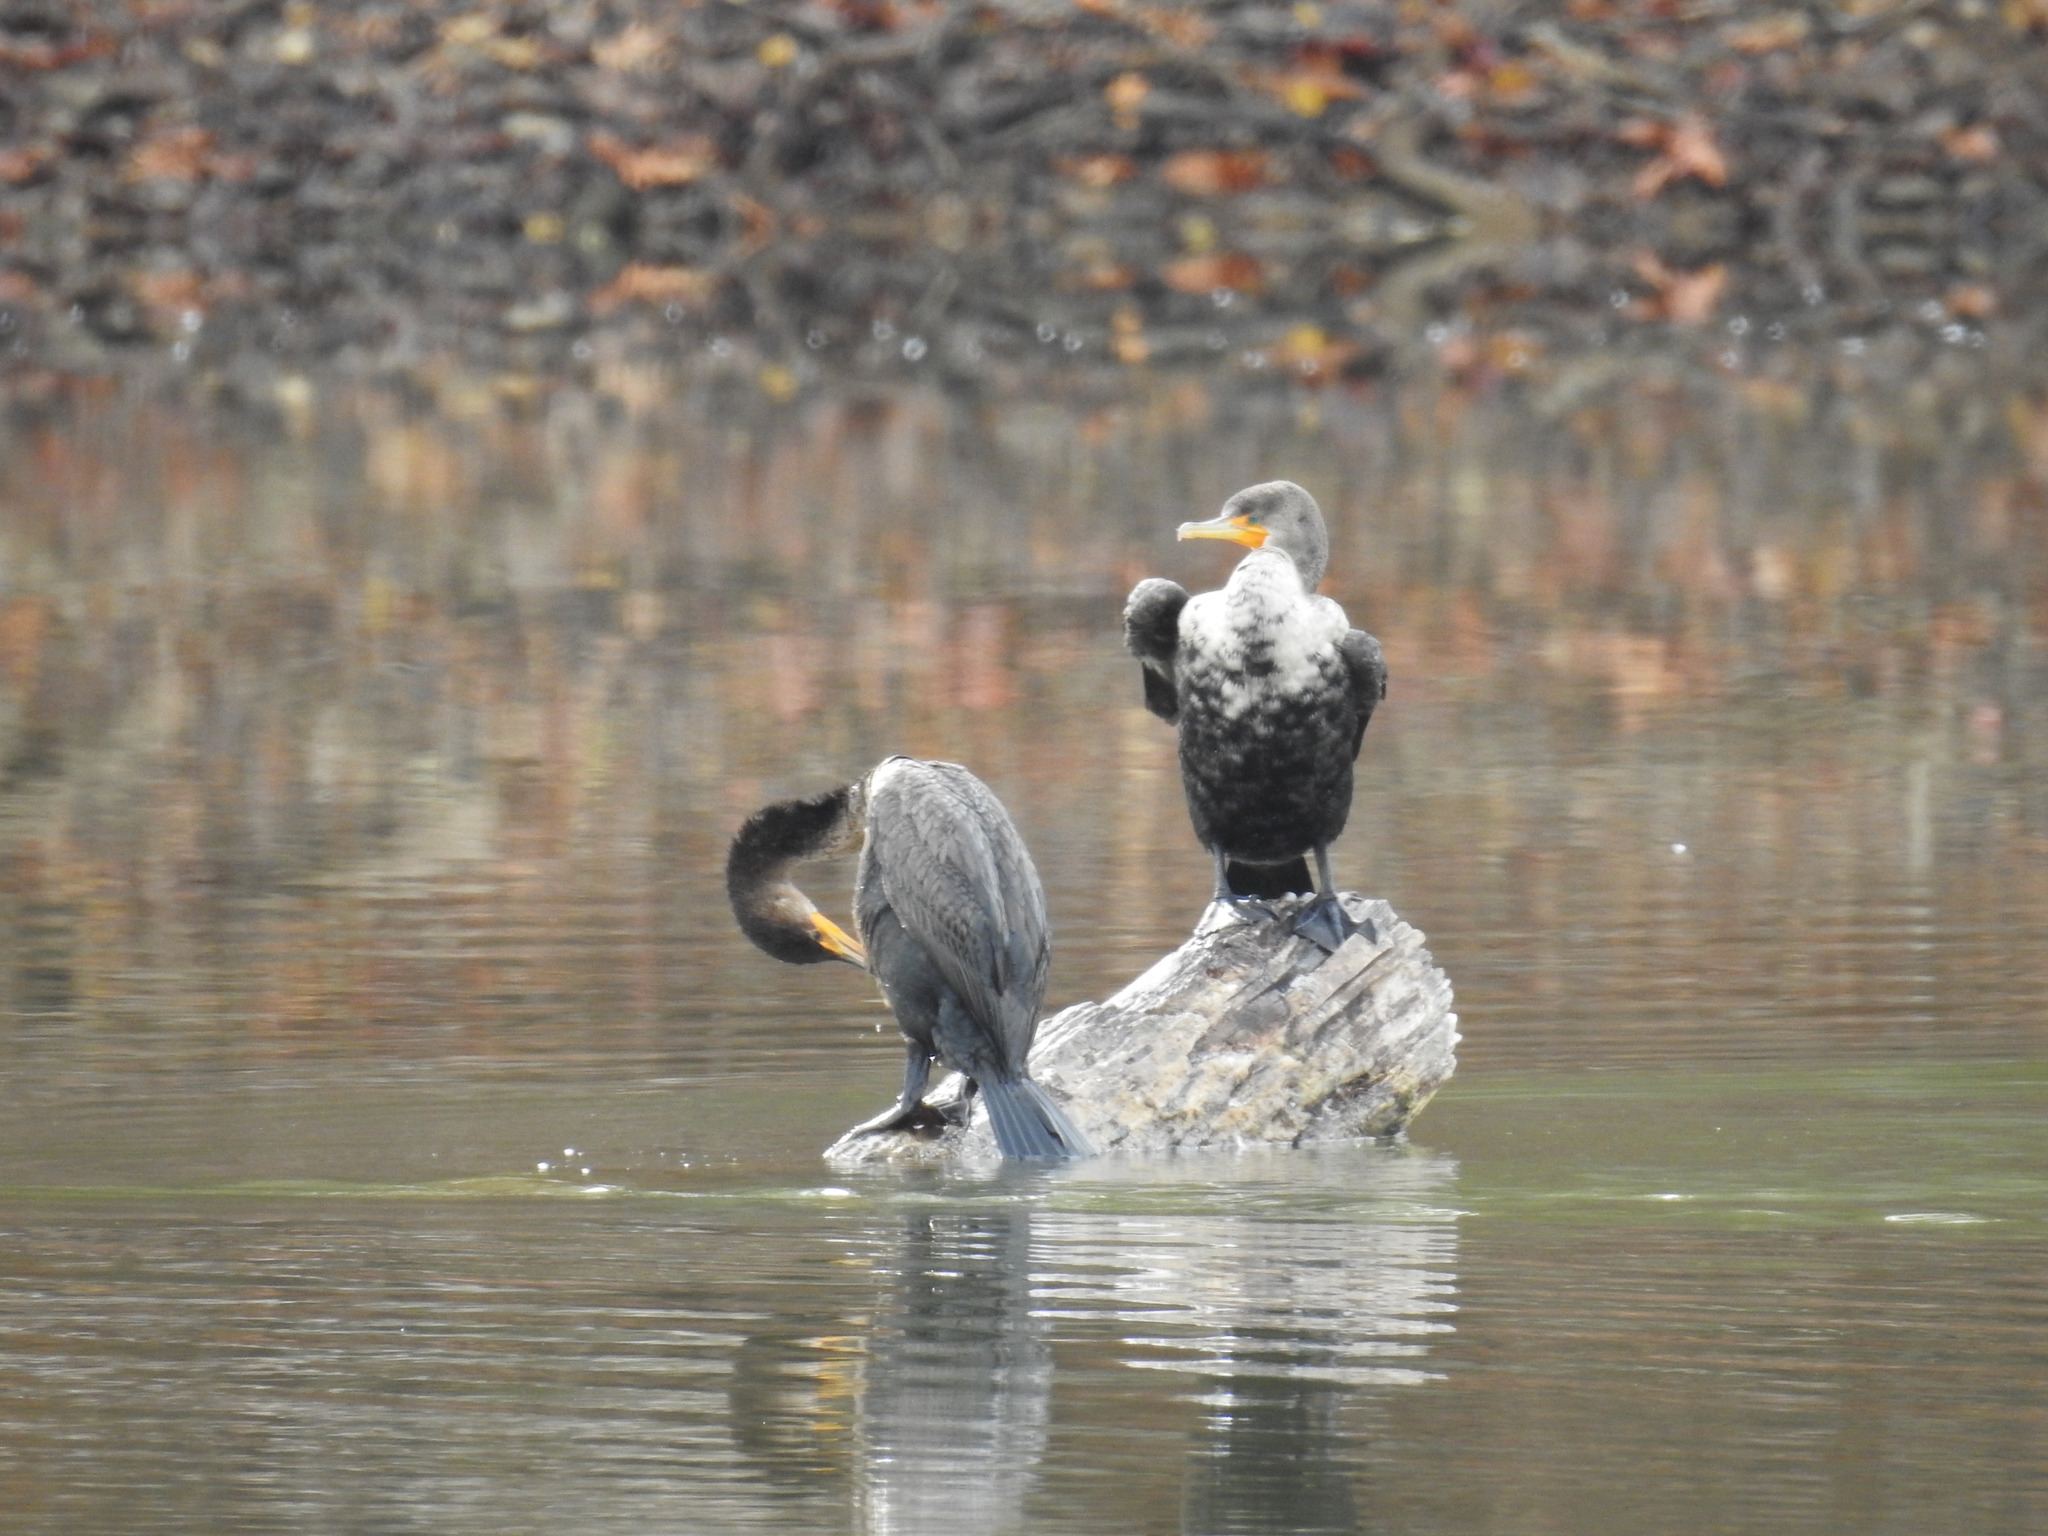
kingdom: Animalia
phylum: Chordata
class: Aves
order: Suliformes
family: Phalacrocoracidae
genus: Phalacrocorax
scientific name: Phalacrocorax auritus
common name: Double-crested cormorant
